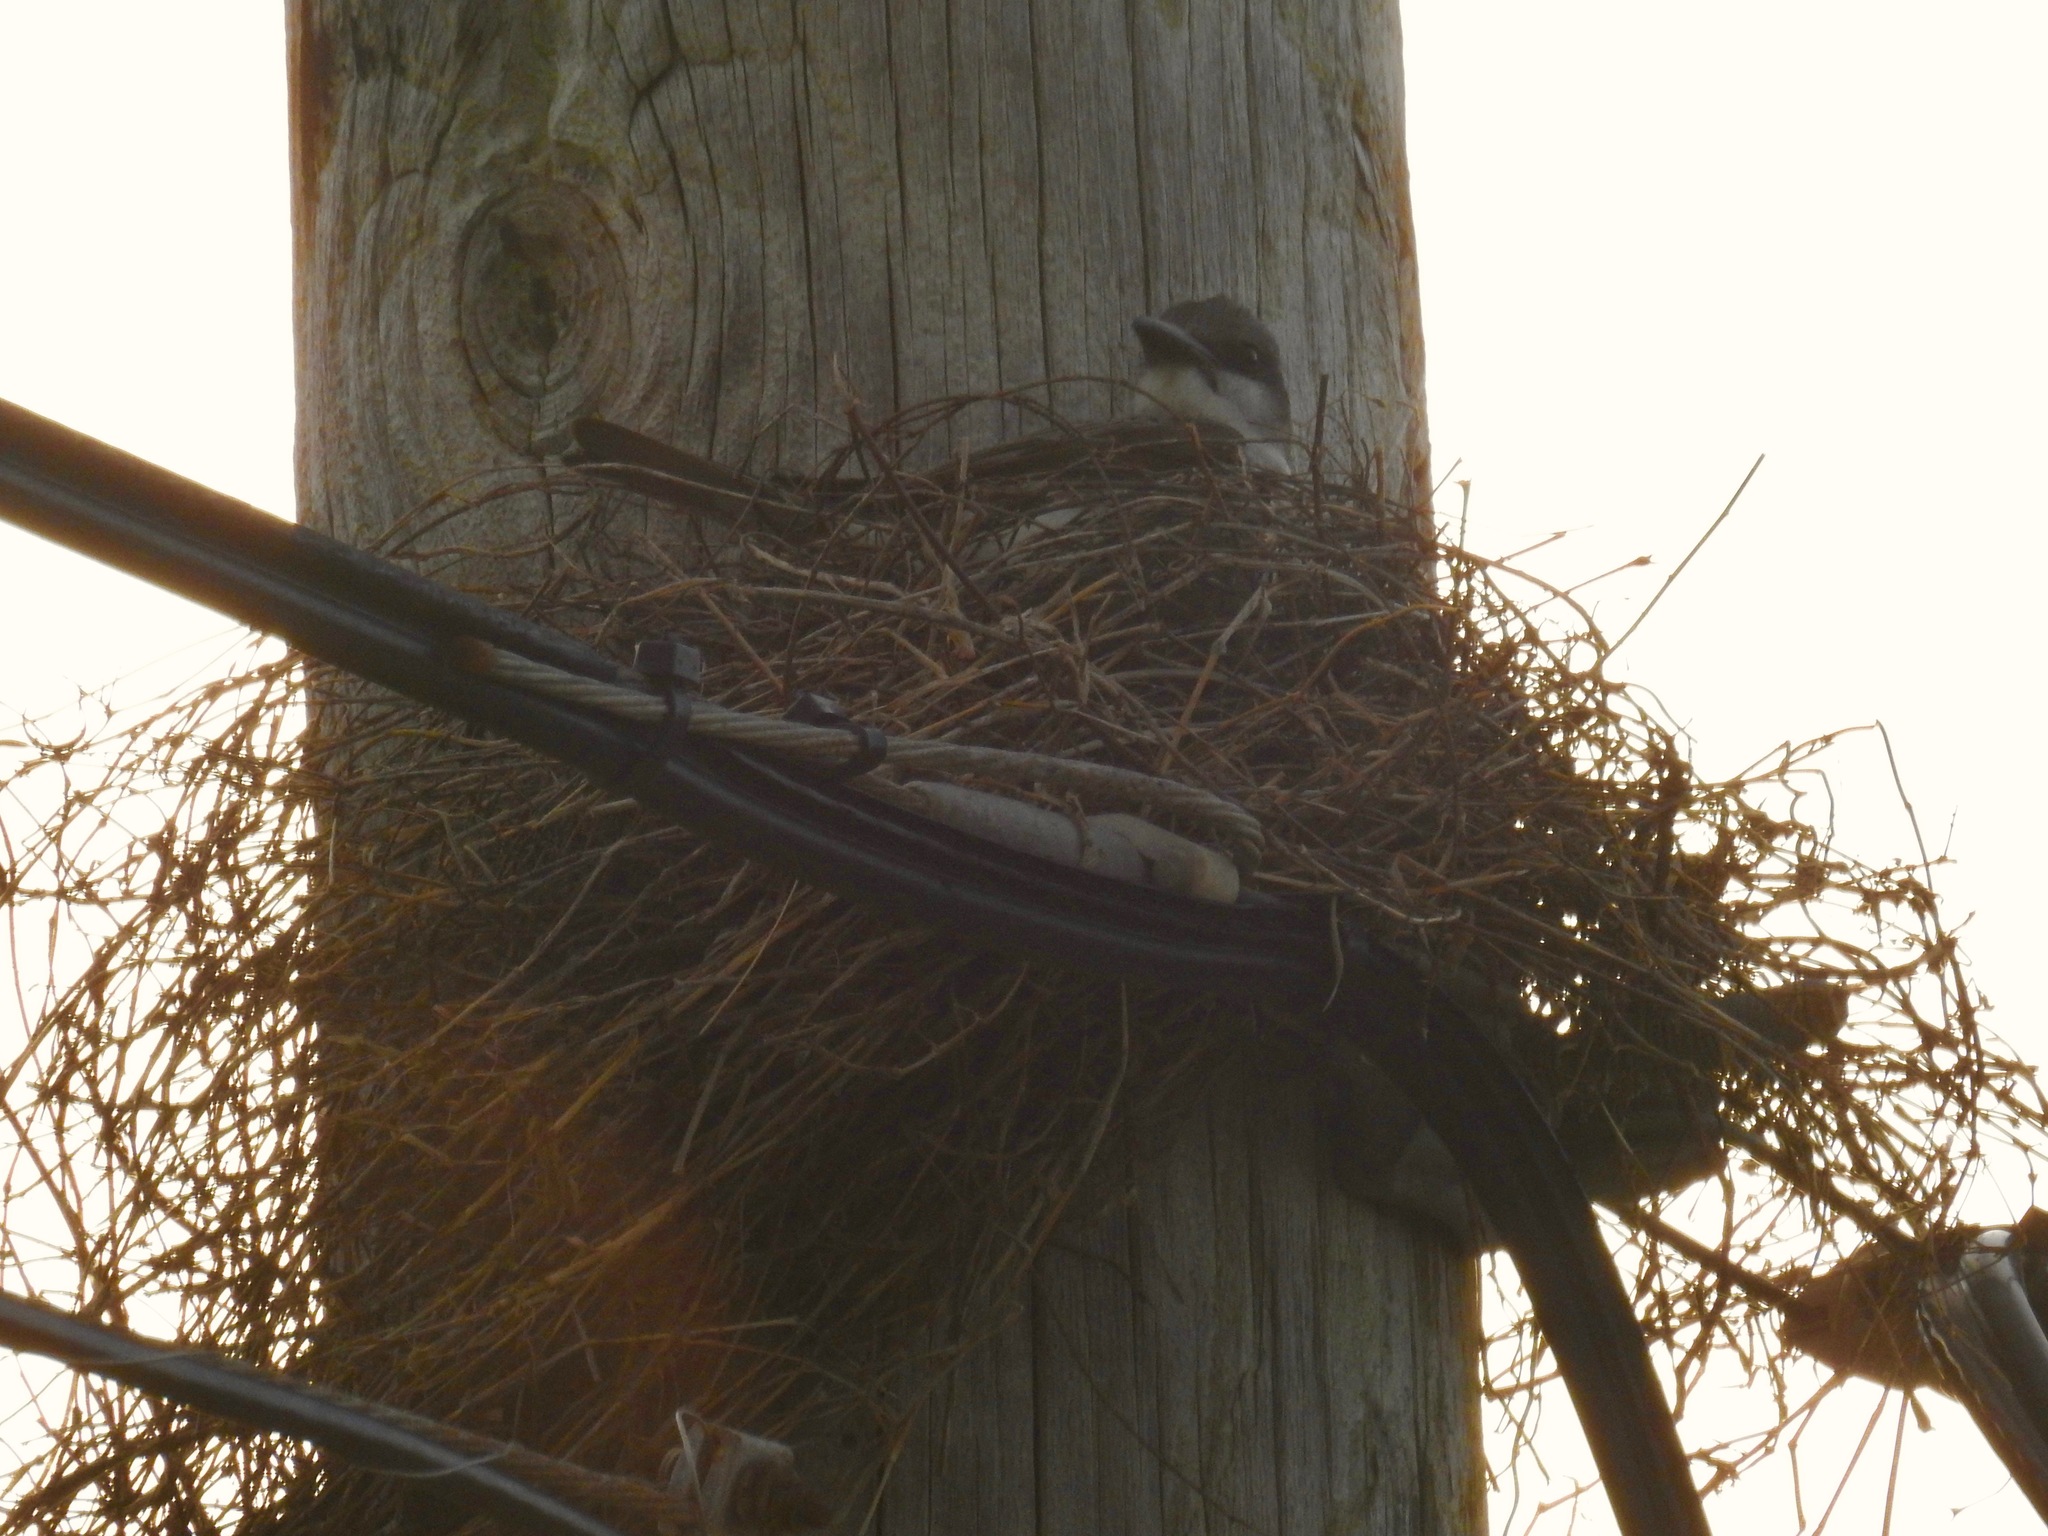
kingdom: Animalia
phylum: Chordata
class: Aves
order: Passeriformes
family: Tyrannidae
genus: Tyrannus
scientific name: Tyrannus dominicensis
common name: Gray kingbird
